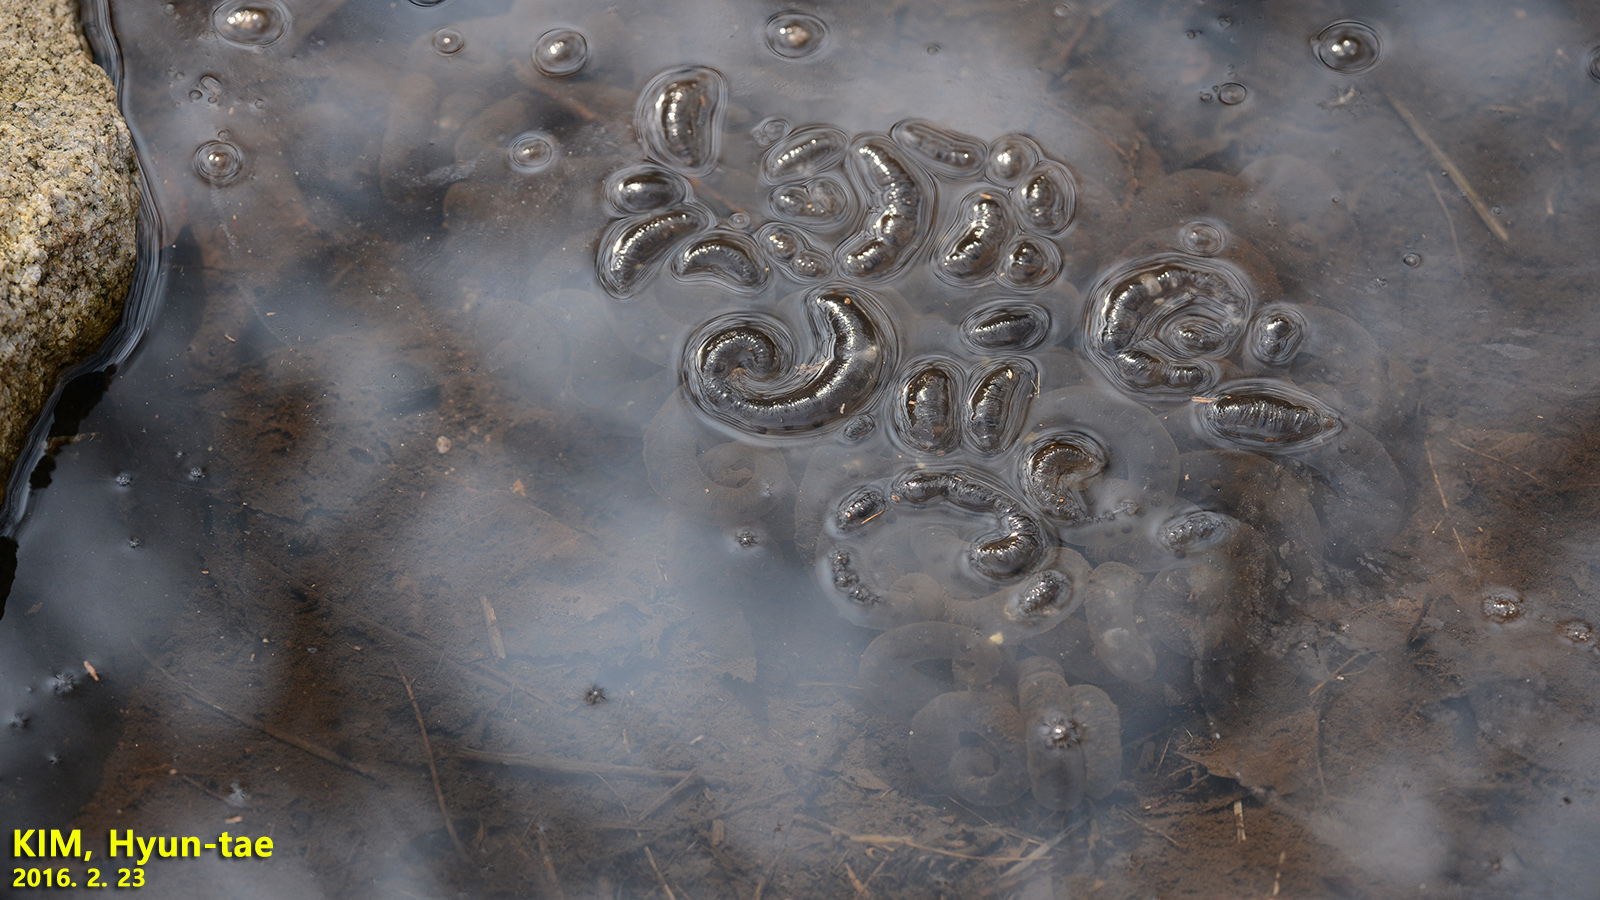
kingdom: Animalia
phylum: Chordata
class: Amphibia
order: Caudata
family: Hynobiidae
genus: Hynobius
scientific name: Hynobius leechii
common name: Gensan salamander
